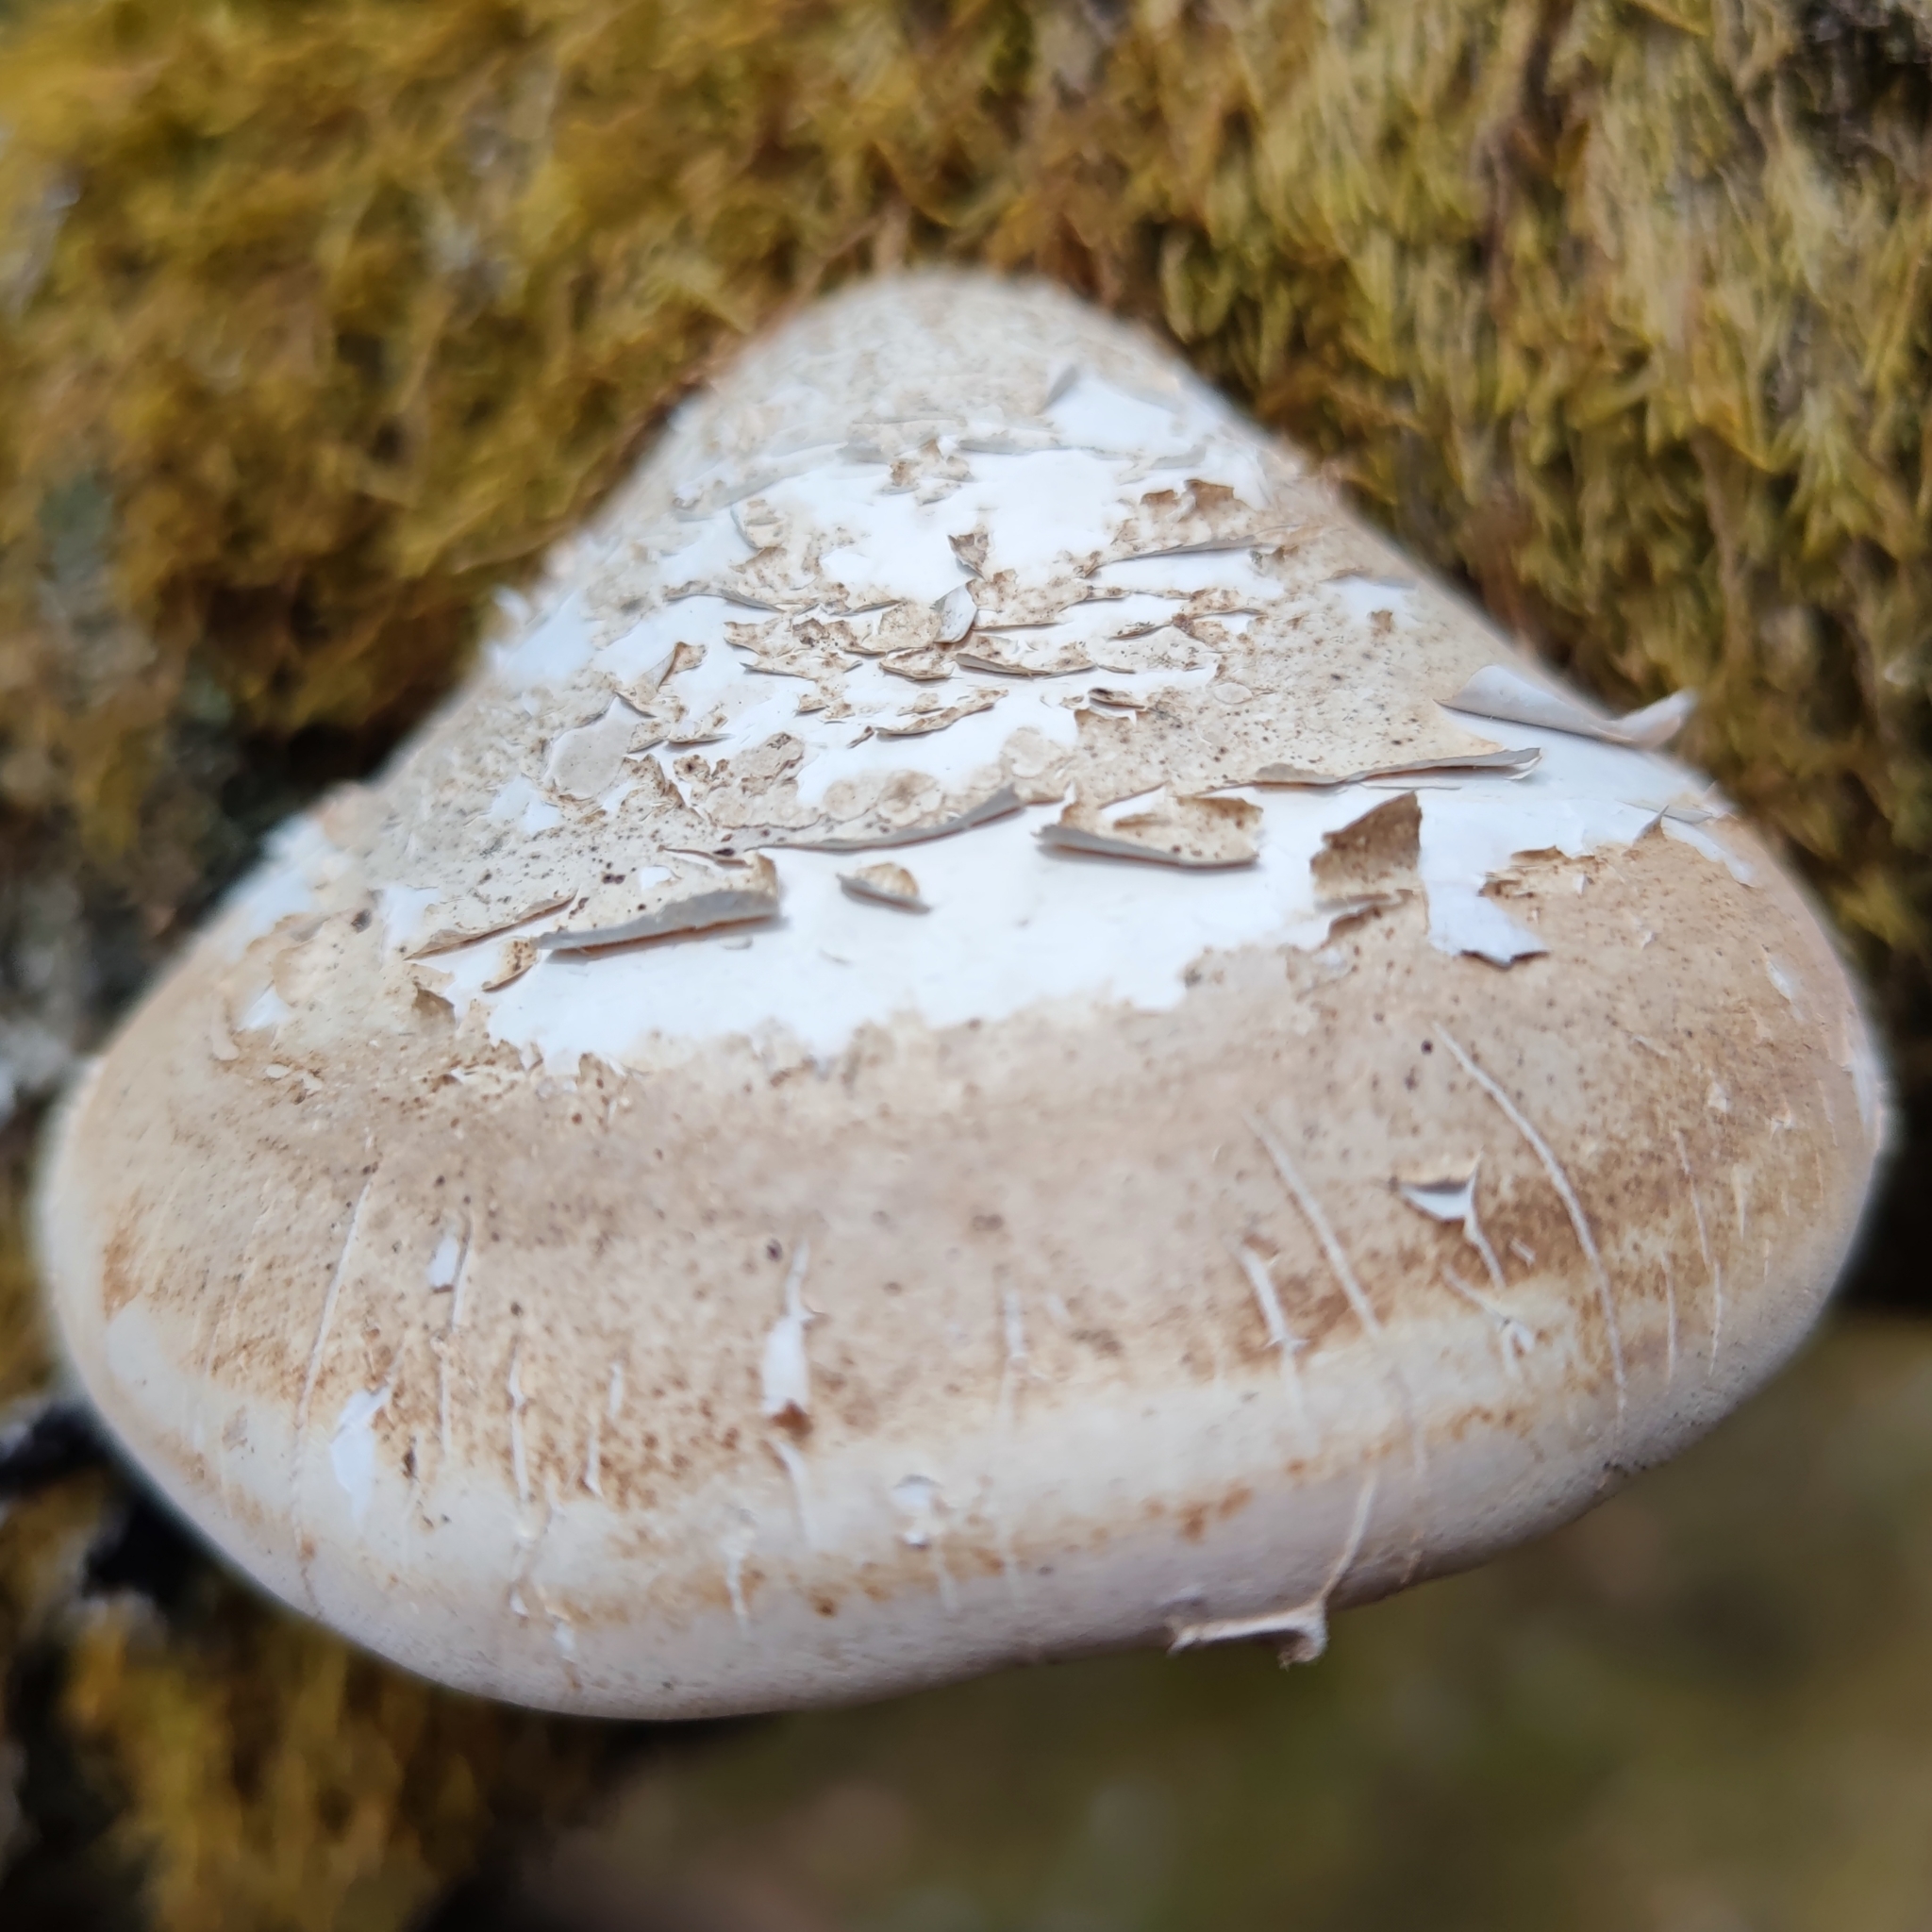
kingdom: Fungi
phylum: Basidiomycota
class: Agaricomycetes
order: Polyporales
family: Fomitopsidaceae
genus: Fomitopsis
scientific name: Fomitopsis betulina
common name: Birch polypore
